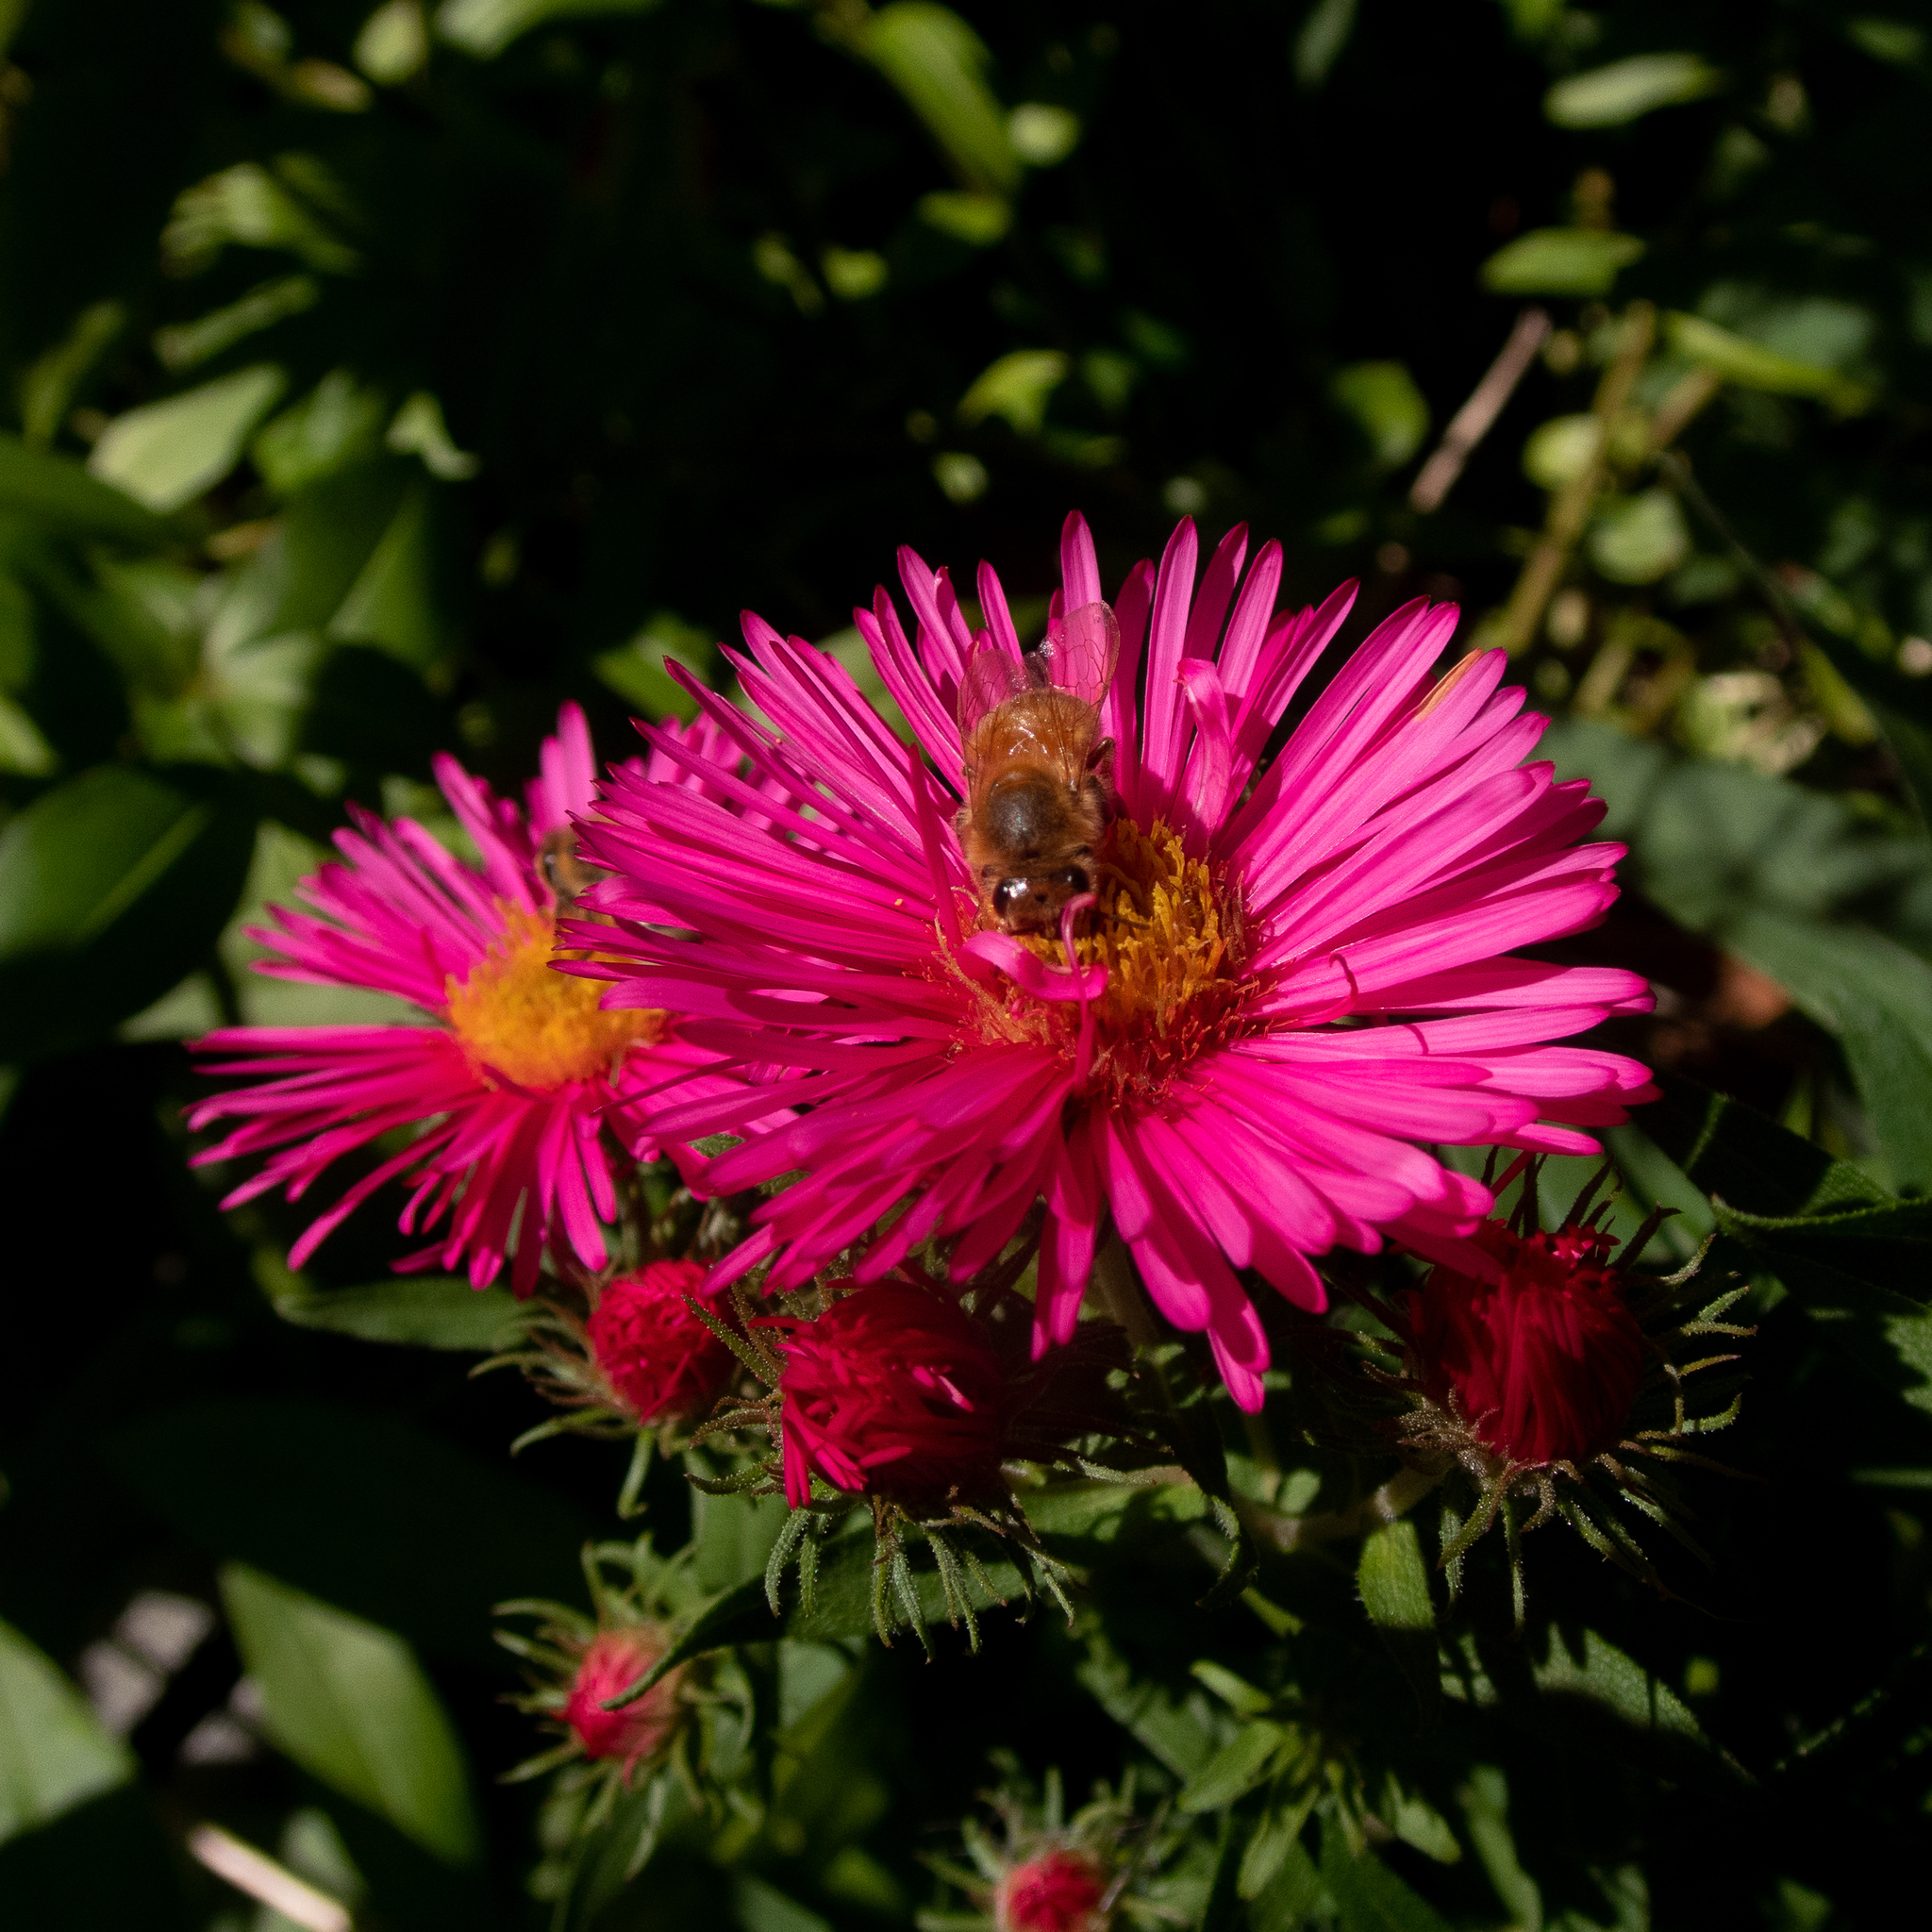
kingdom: Animalia
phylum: Arthropoda
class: Insecta
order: Hymenoptera
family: Apidae
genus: Apis
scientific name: Apis mellifera
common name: Honey bee
